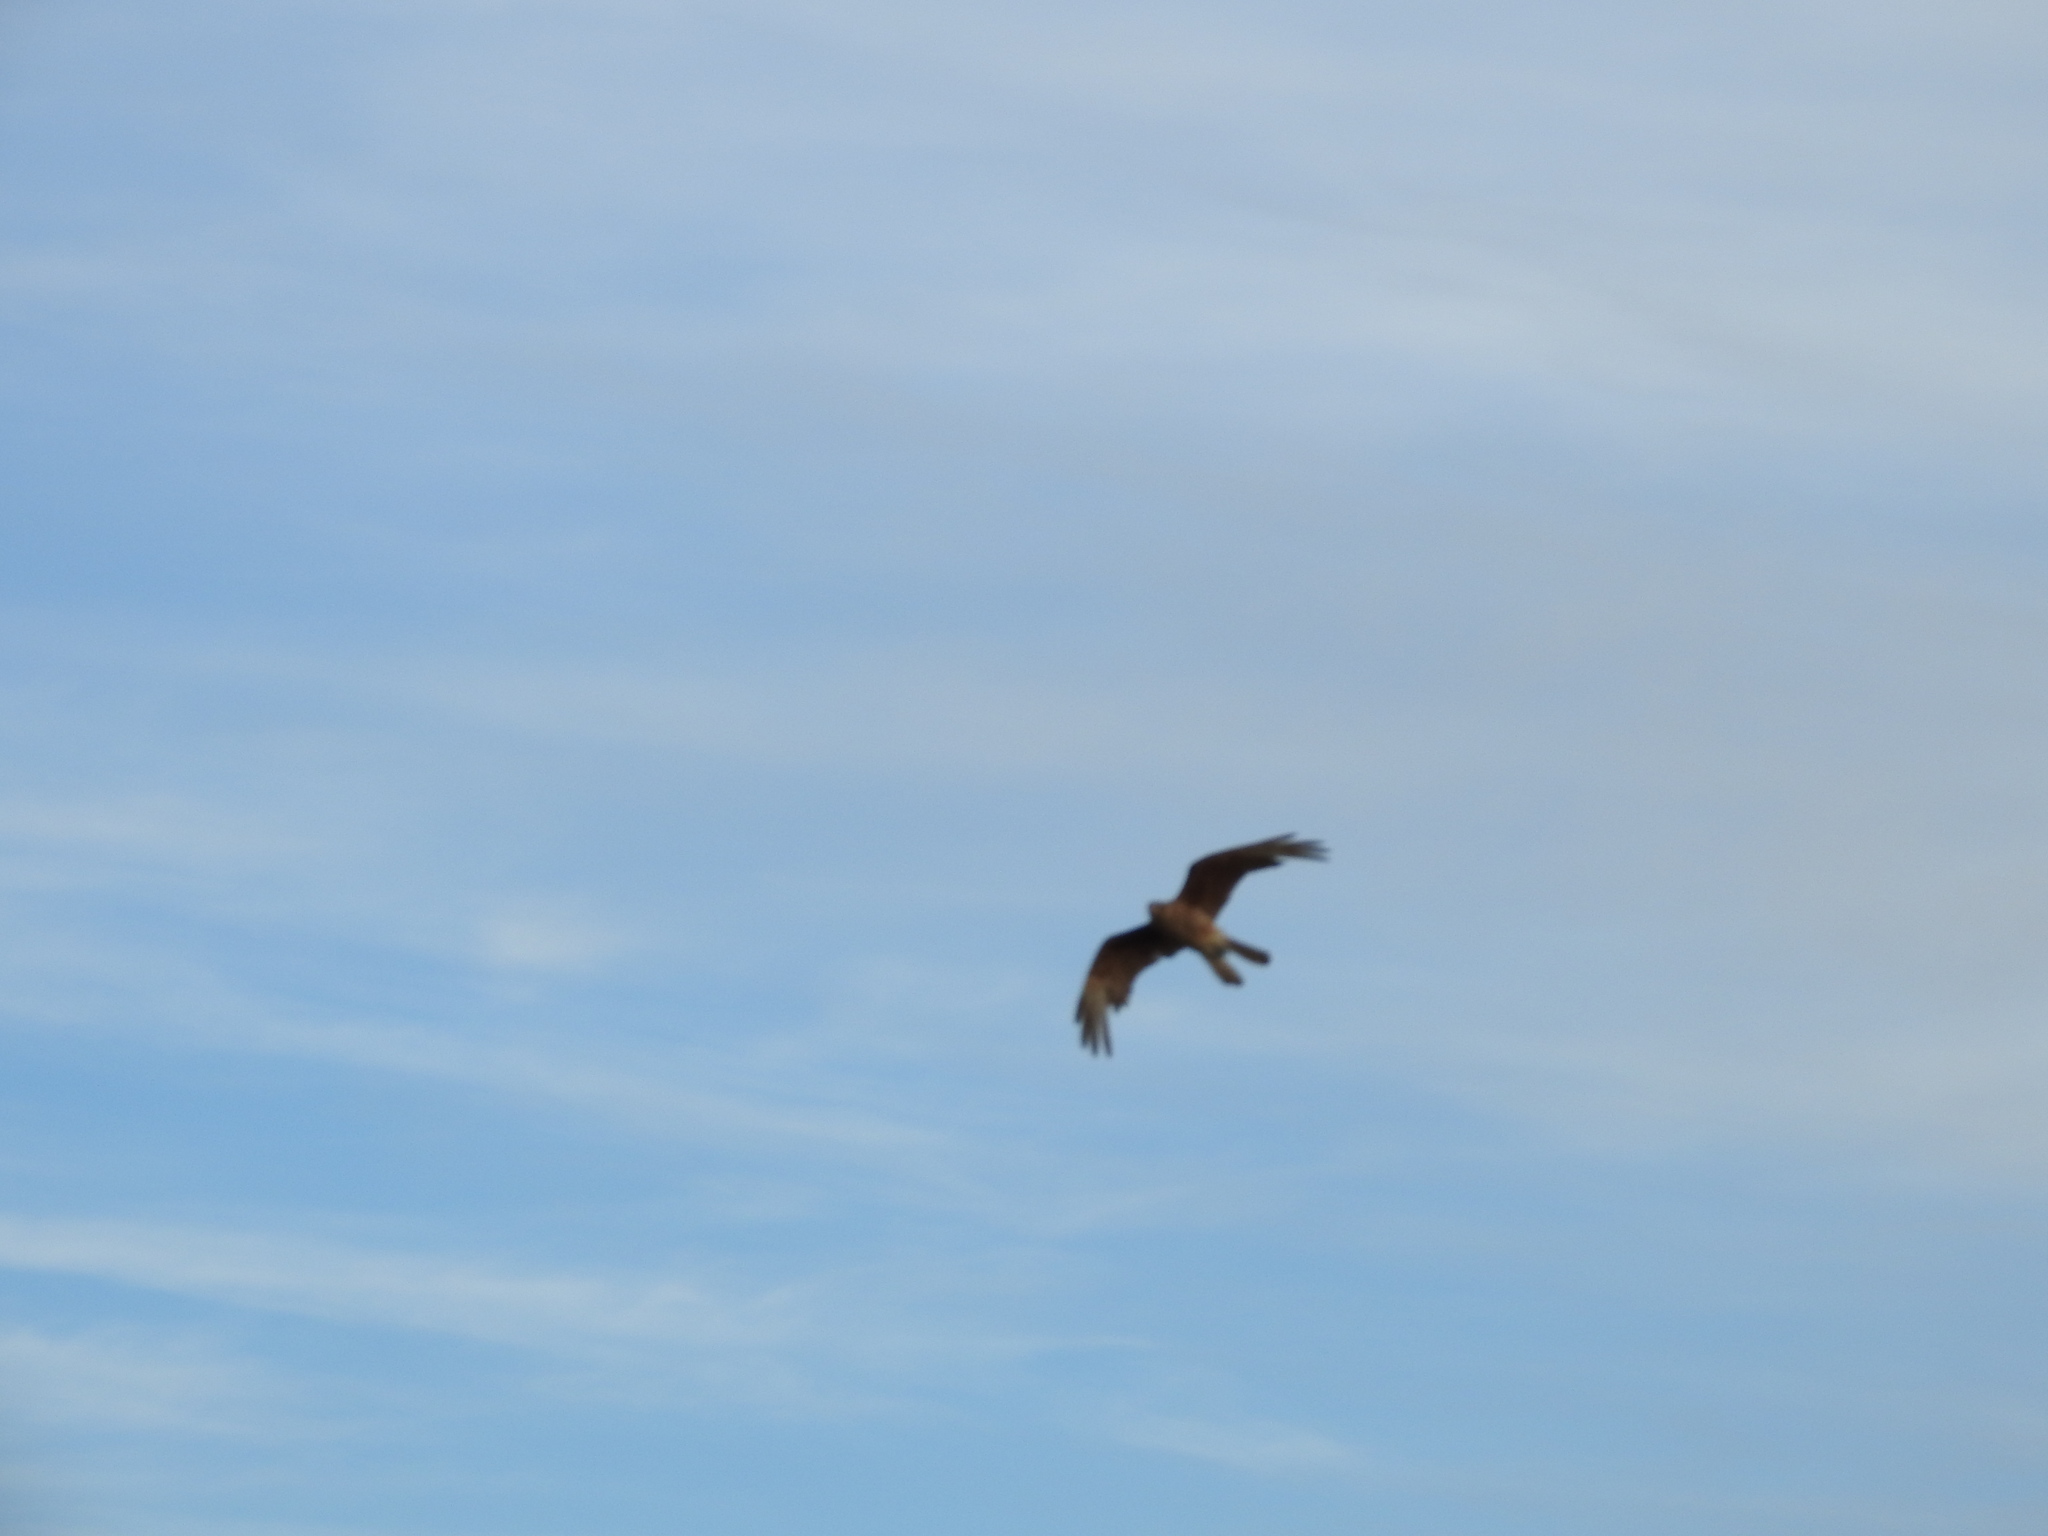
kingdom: Animalia
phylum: Chordata
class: Aves
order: Falconiformes
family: Falconidae
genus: Daptrius
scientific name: Daptrius
